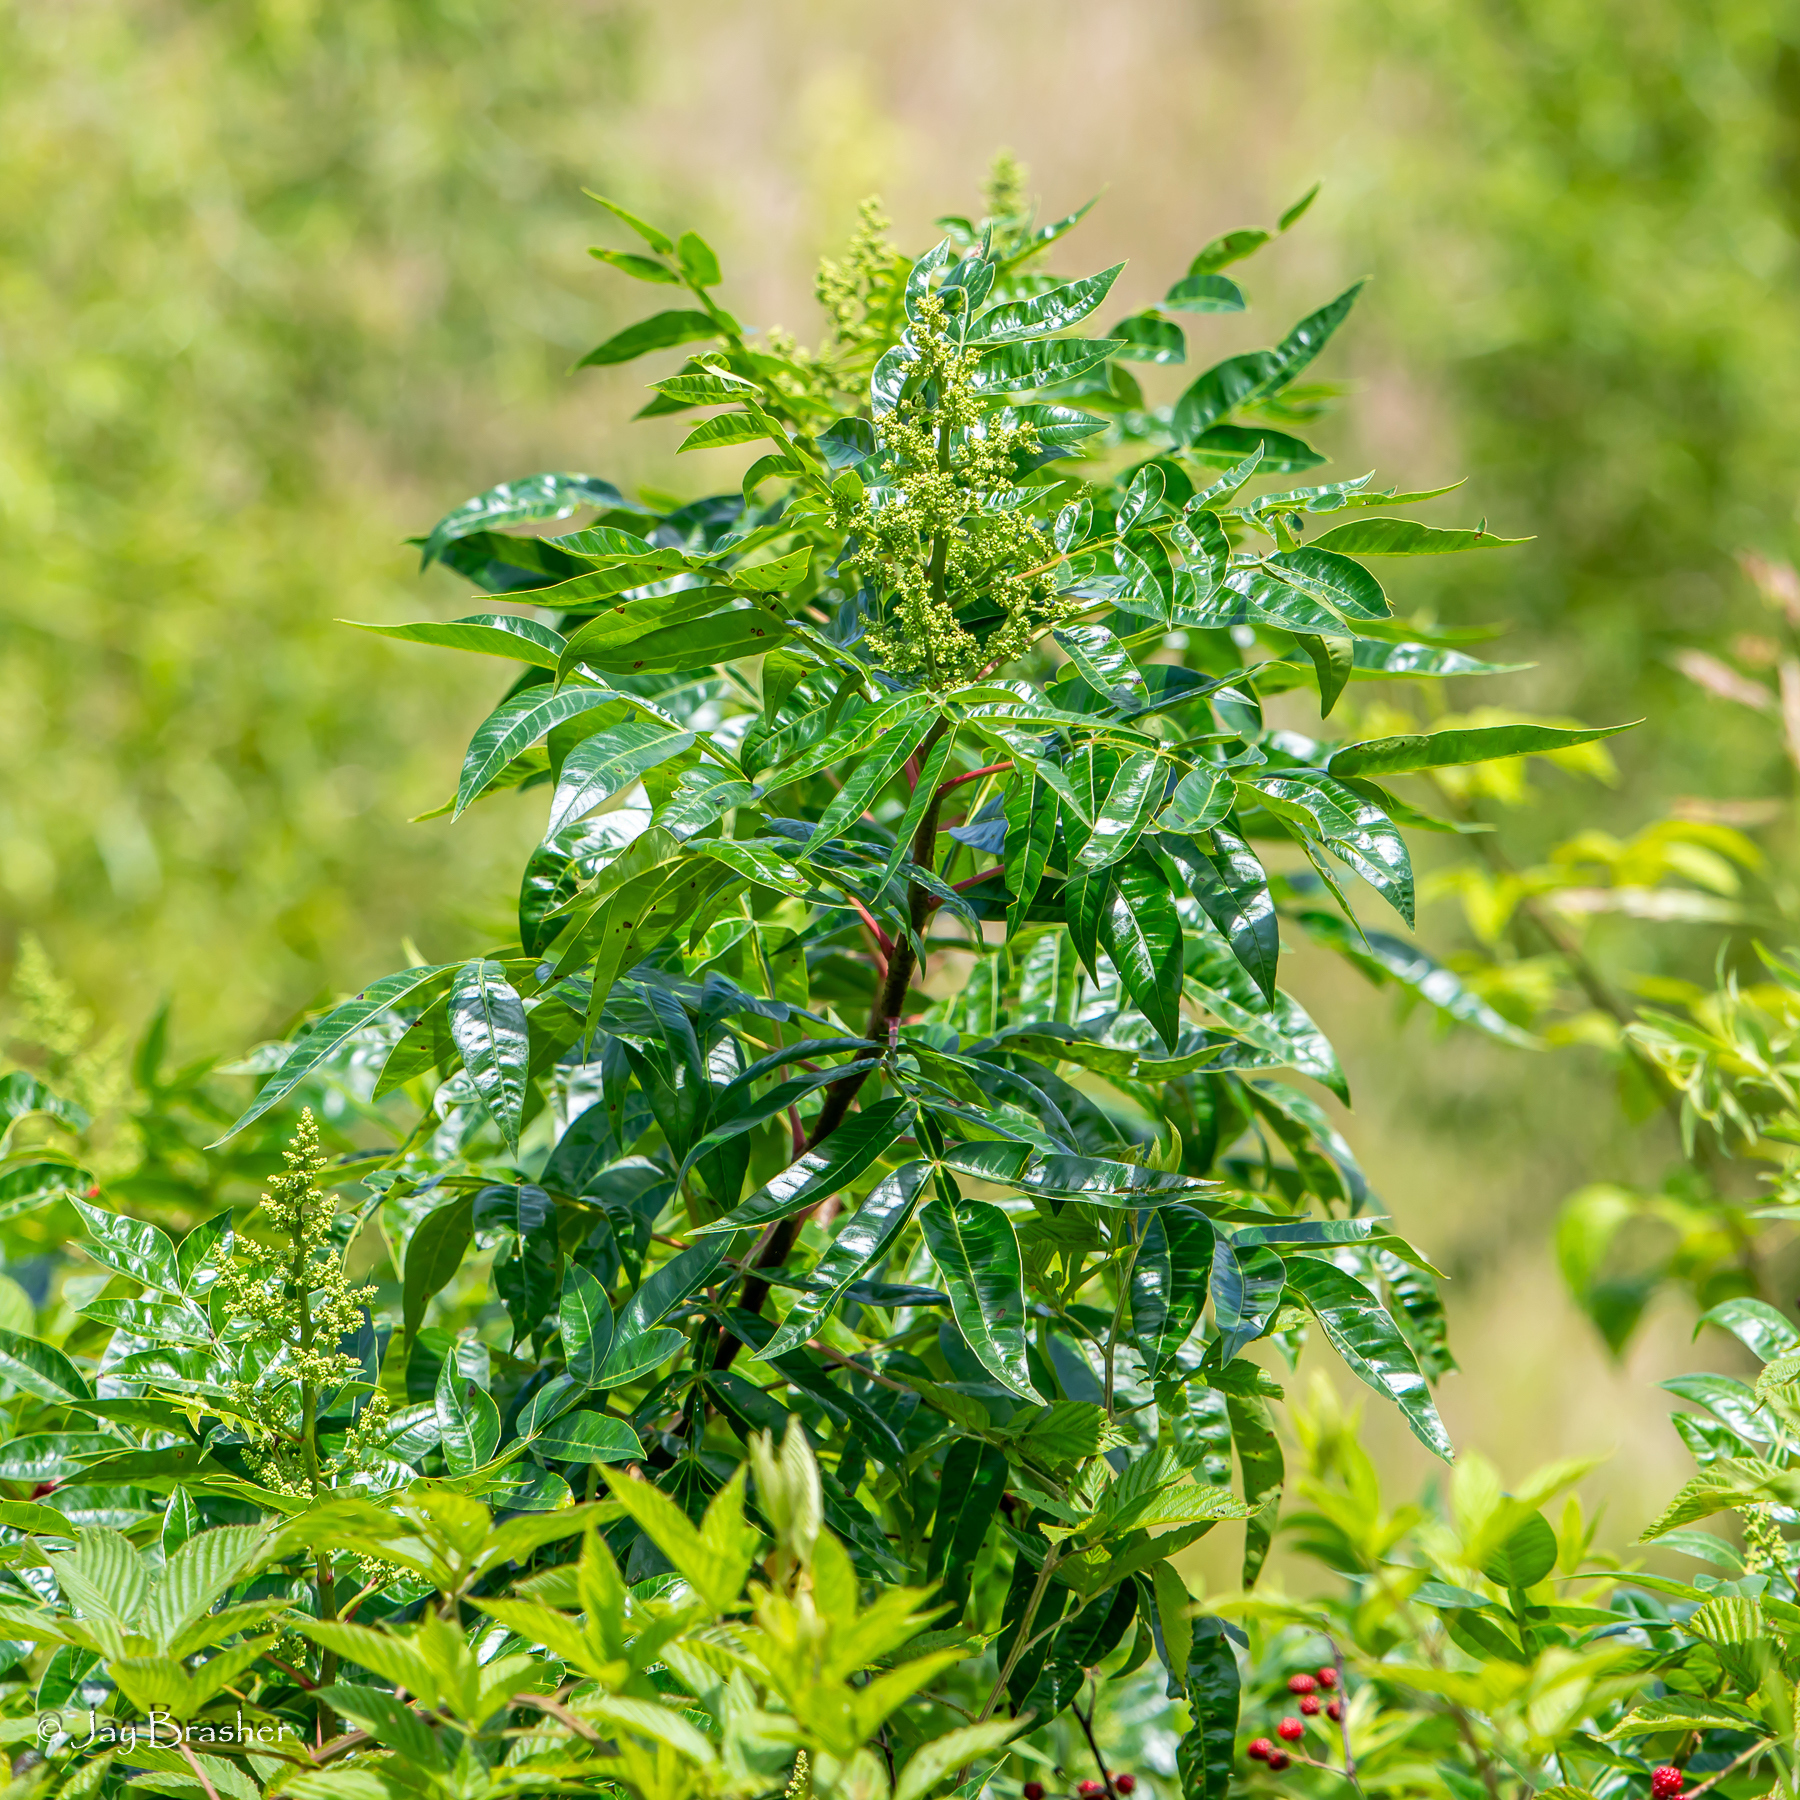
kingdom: Plantae
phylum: Tracheophyta
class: Magnoliopsida
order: Sapindales
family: Anacardiaceae
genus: Rhus
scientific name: Rhus copallina
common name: Shining sumac
